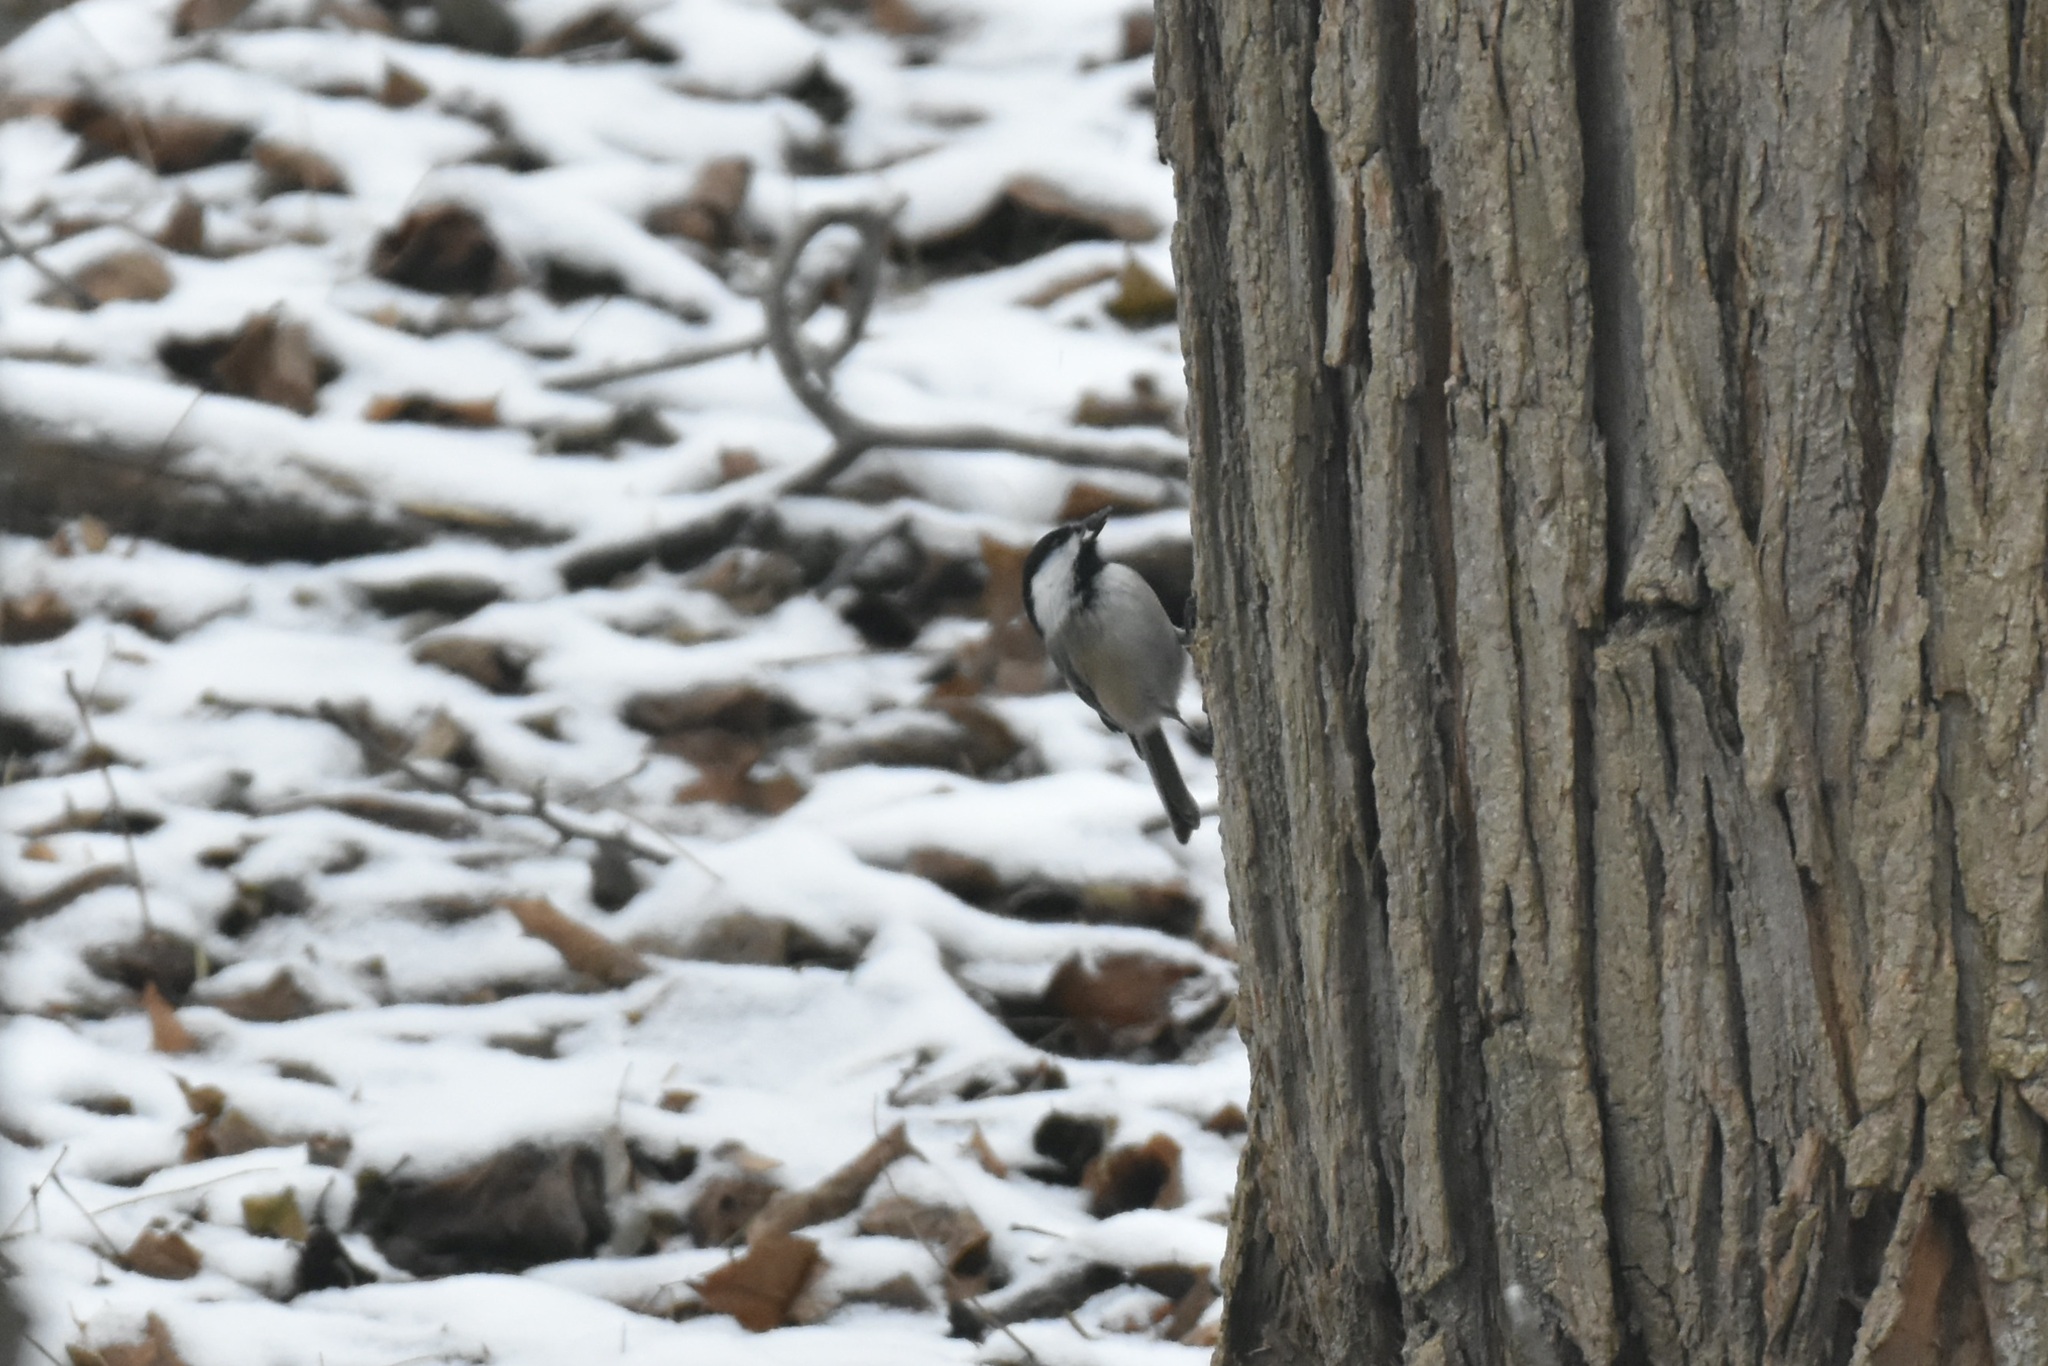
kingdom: Animalia
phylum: Chordata
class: Aves
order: Passeriformes
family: Paridae
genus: Poecile
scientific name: Poecile atricapillus
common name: Black-capped chickadee
